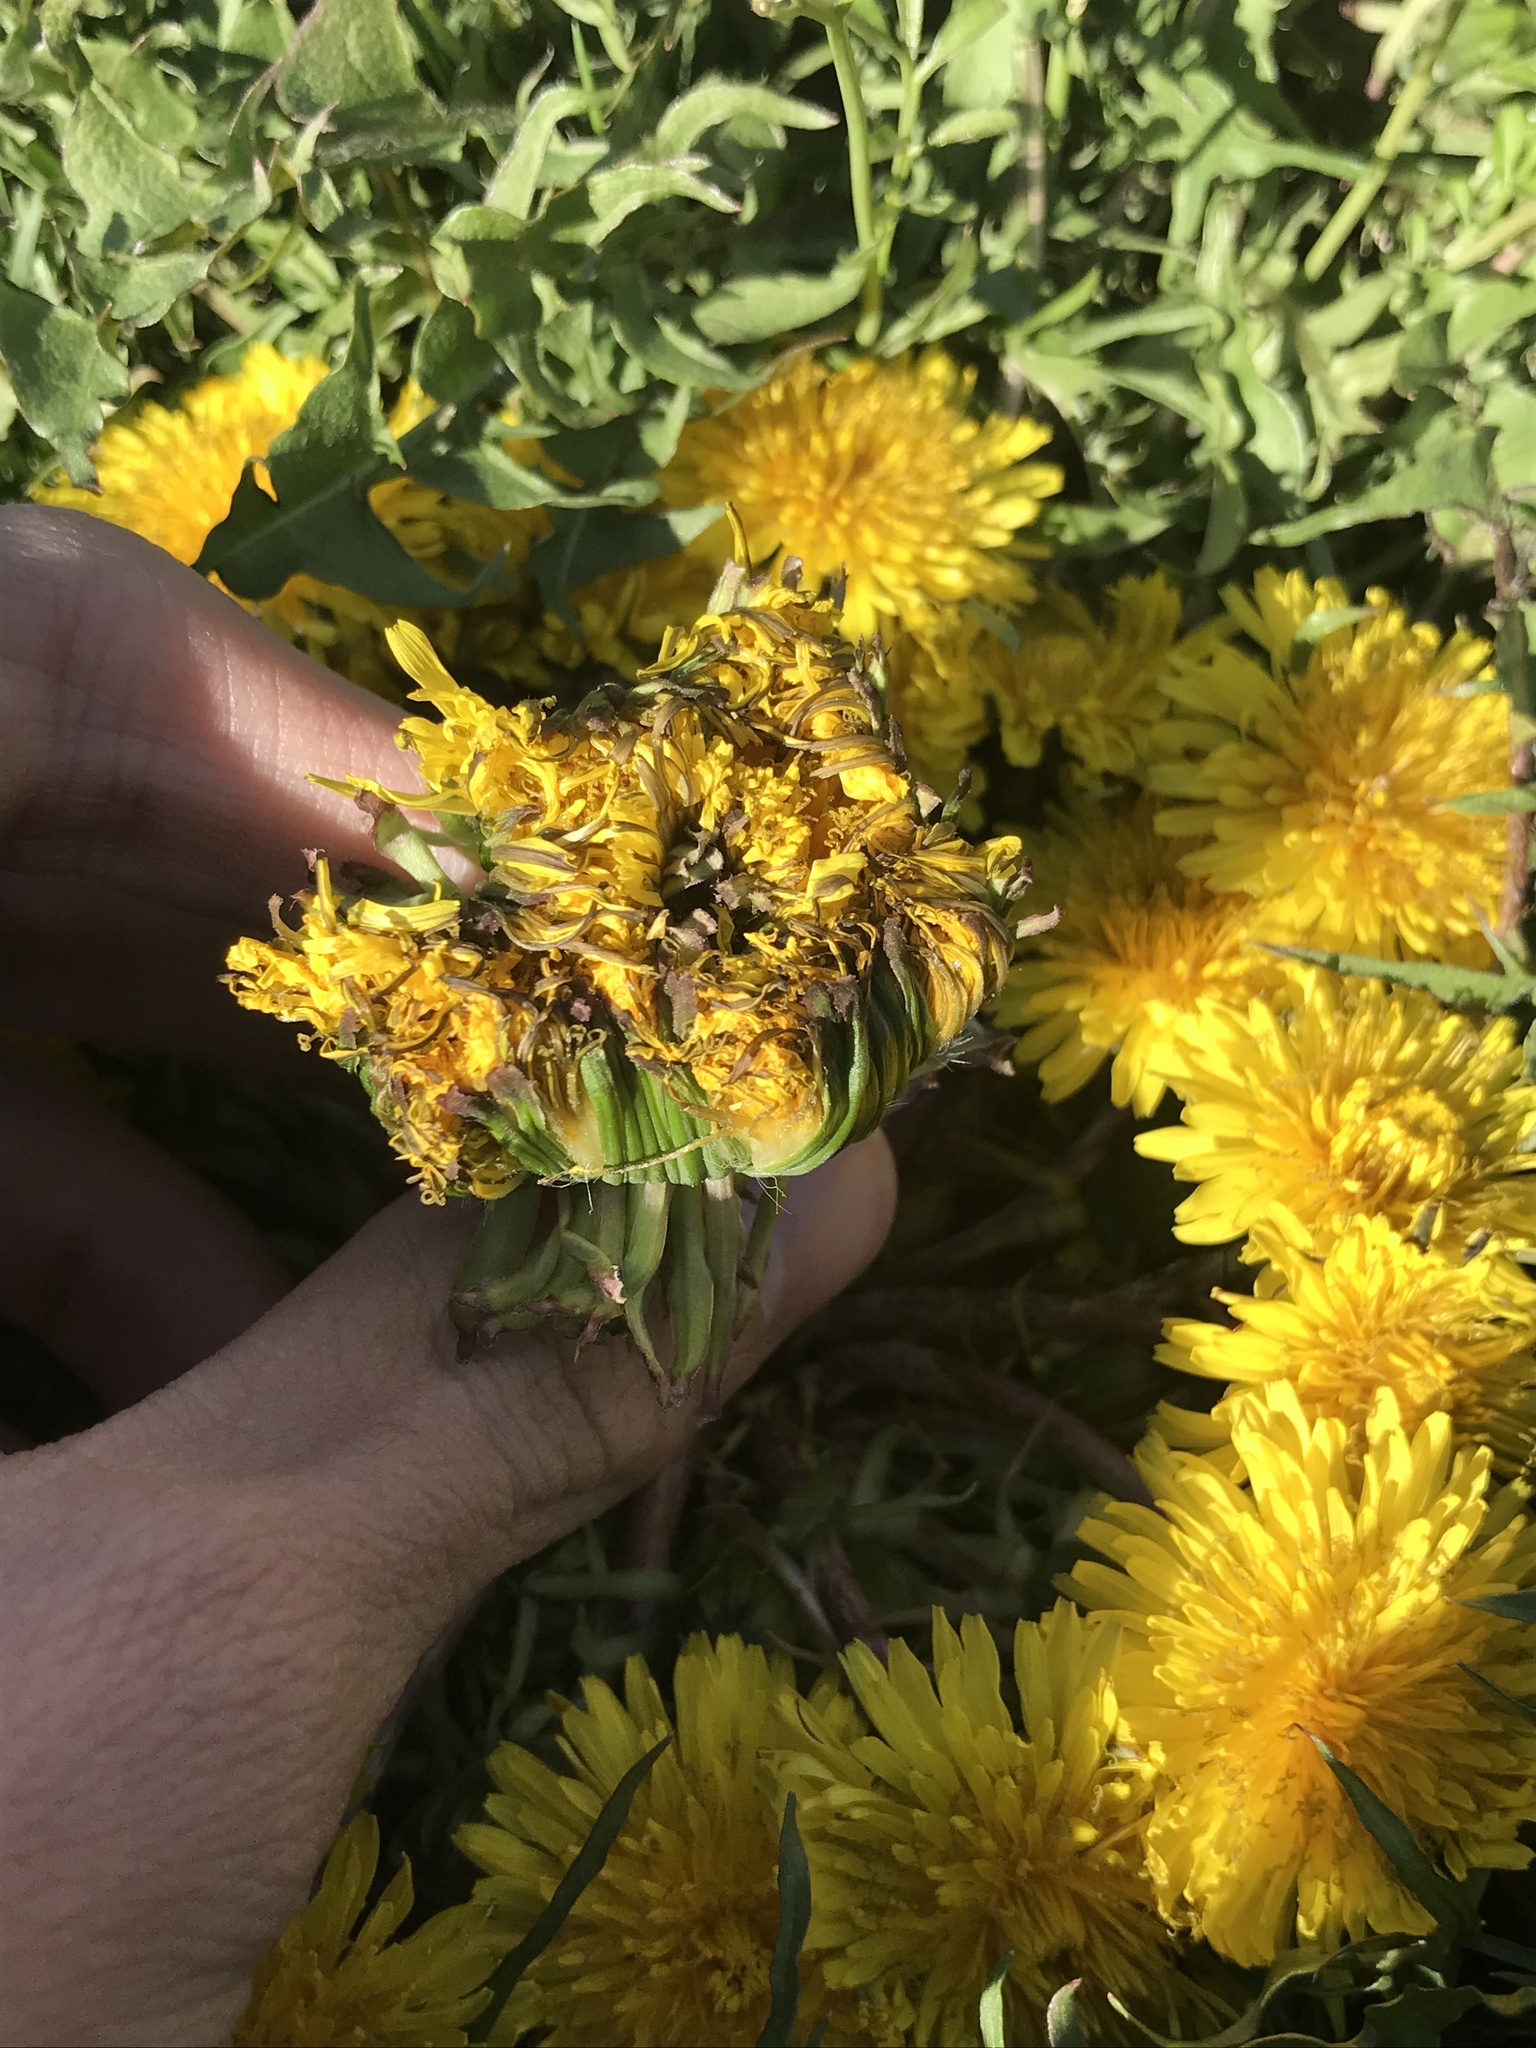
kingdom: Plantae
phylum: Tracheophyta
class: Magnoliopsida
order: Asterales
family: Asteraceae
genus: Taraxacum
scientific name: Taraxacum erythrospermum
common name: Rock dandelion
